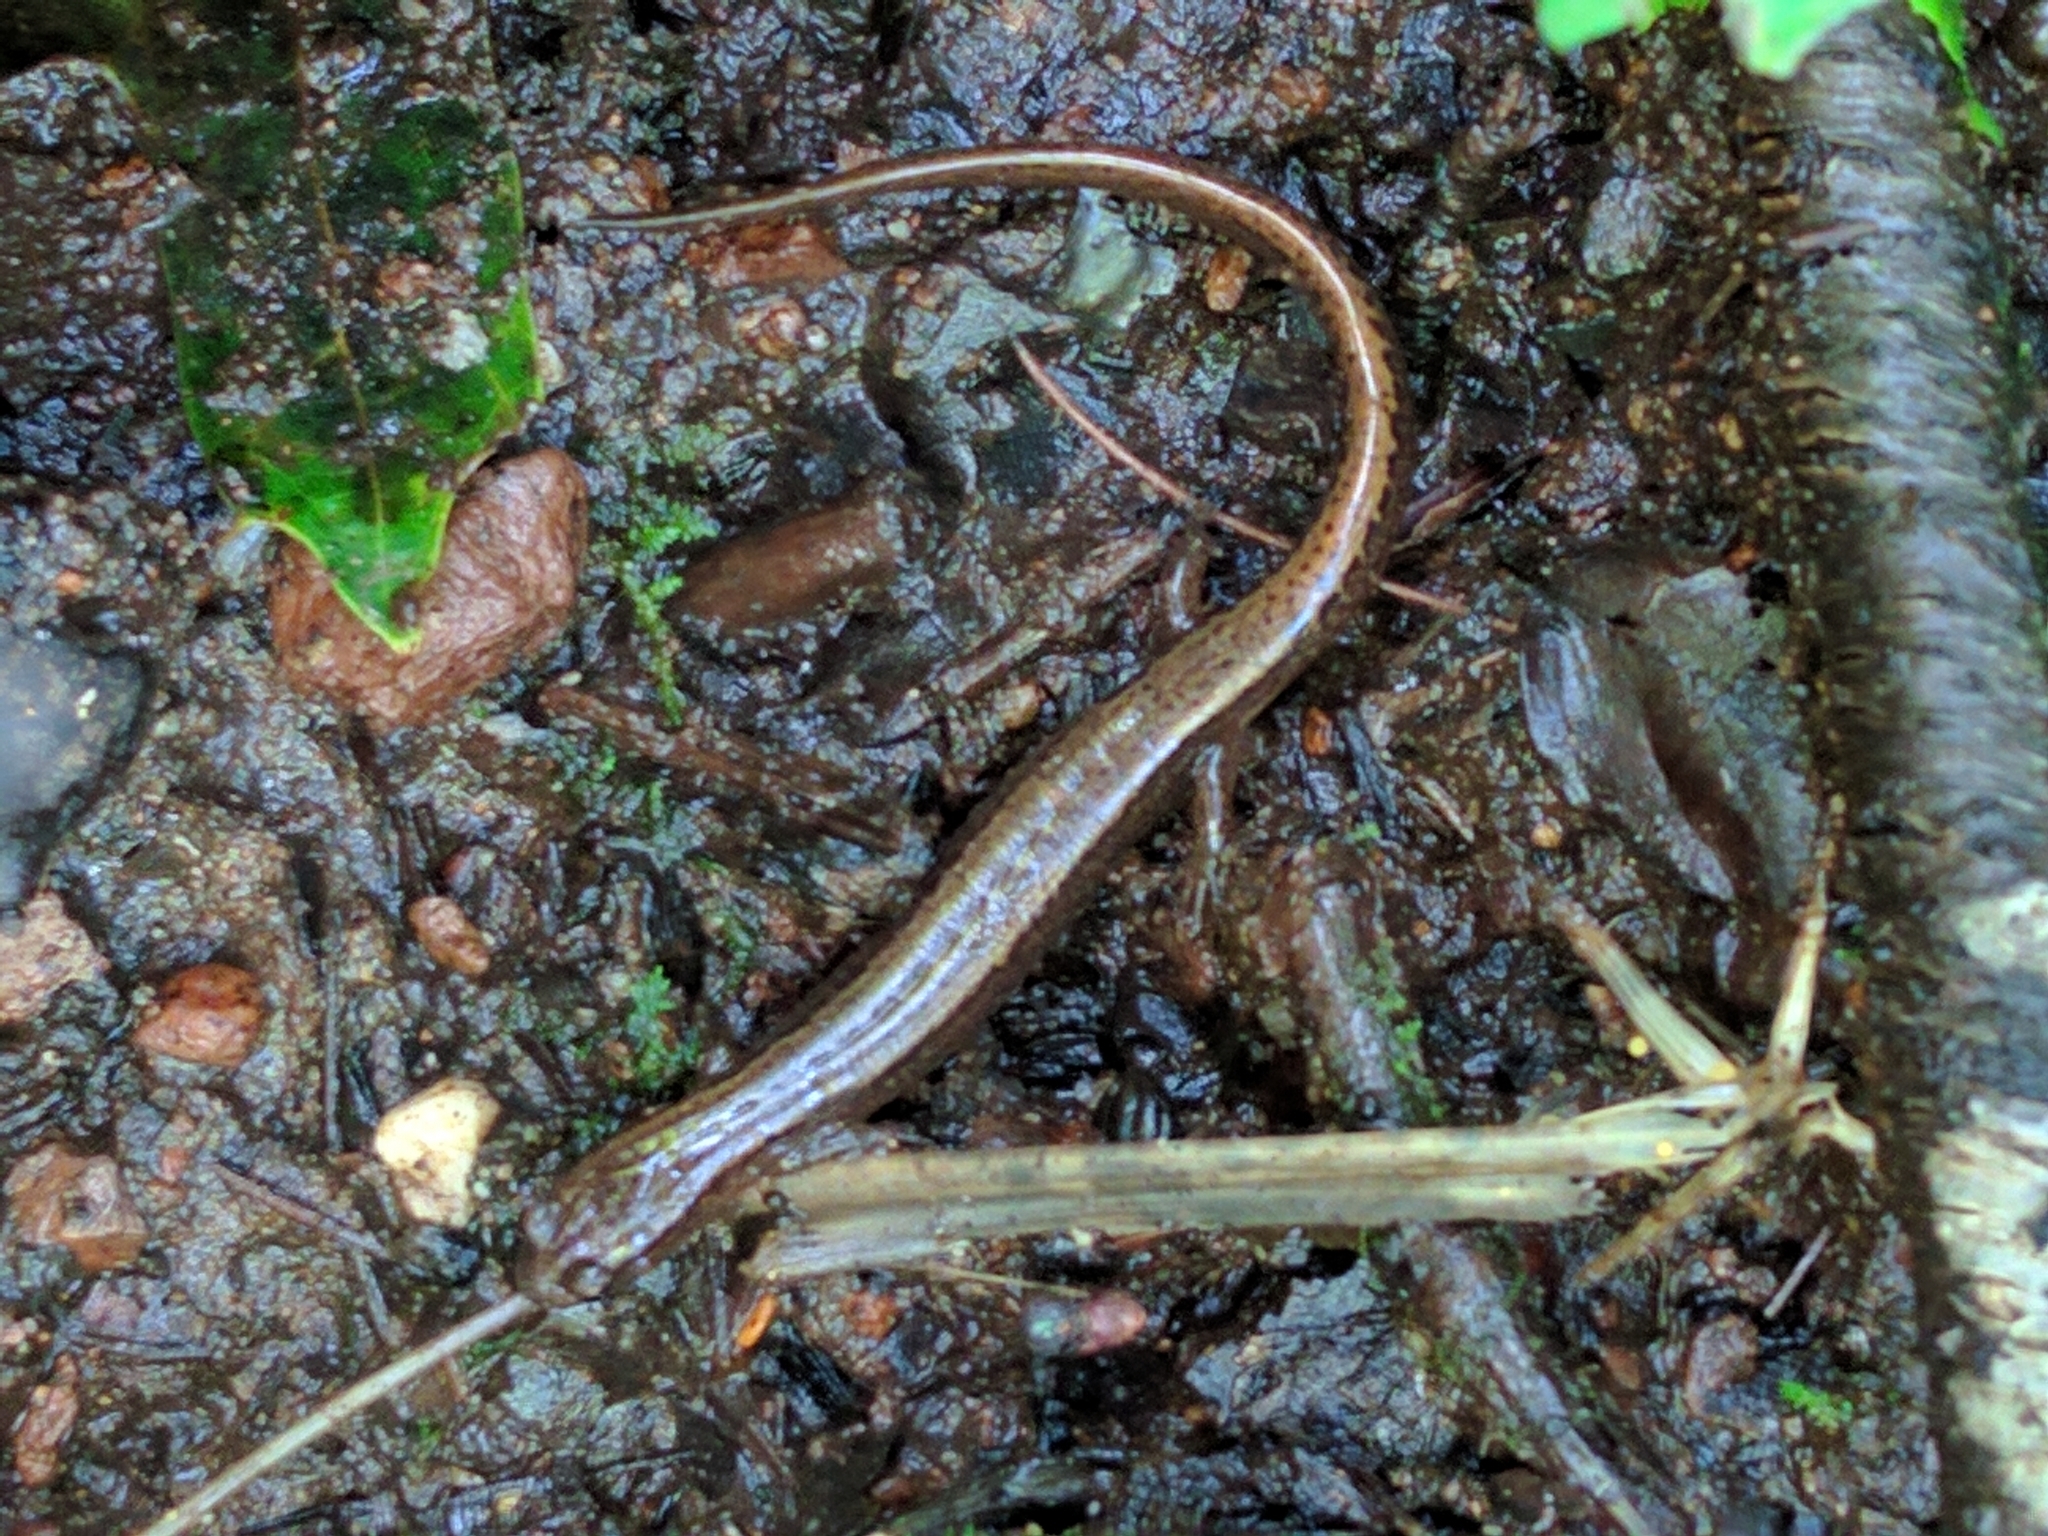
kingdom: Animalia
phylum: Chordata
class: Amphibia
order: Caudata
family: Plethodontidae
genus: Eurycea
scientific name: Eurycea bislineata
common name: Northern two-lined salamander
